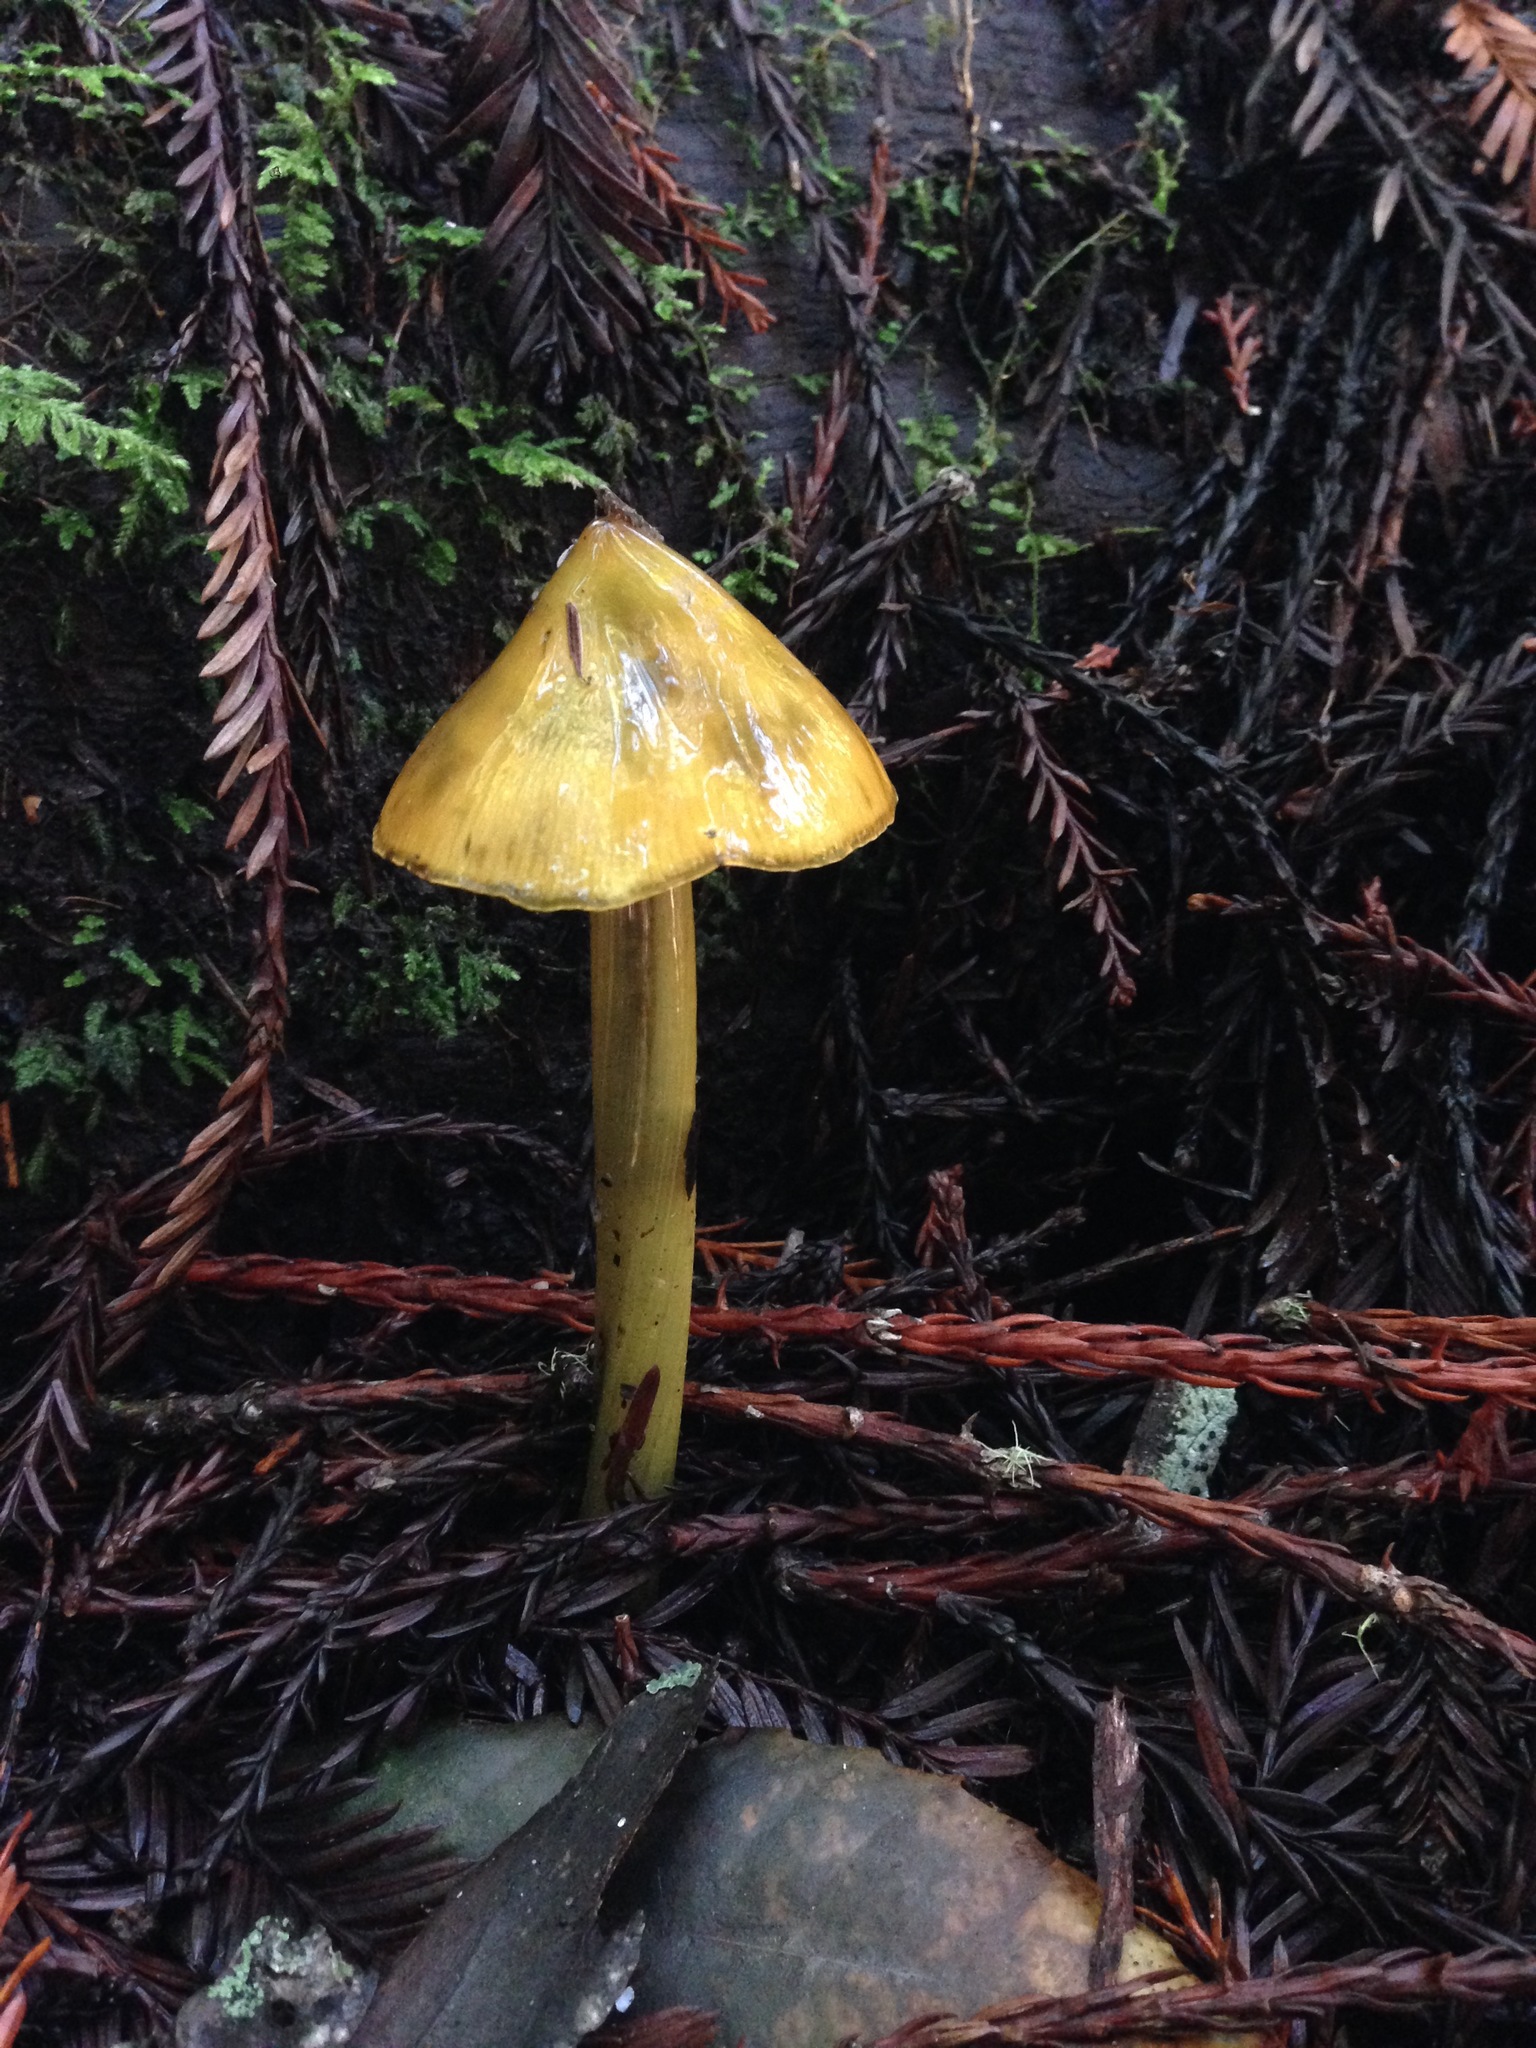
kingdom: Fungi
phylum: Basidiomycota
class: Agaricomycetes
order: Agaricales
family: Hygrophoraceae
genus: Hygrocybe
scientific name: Hygrocybe singeri
